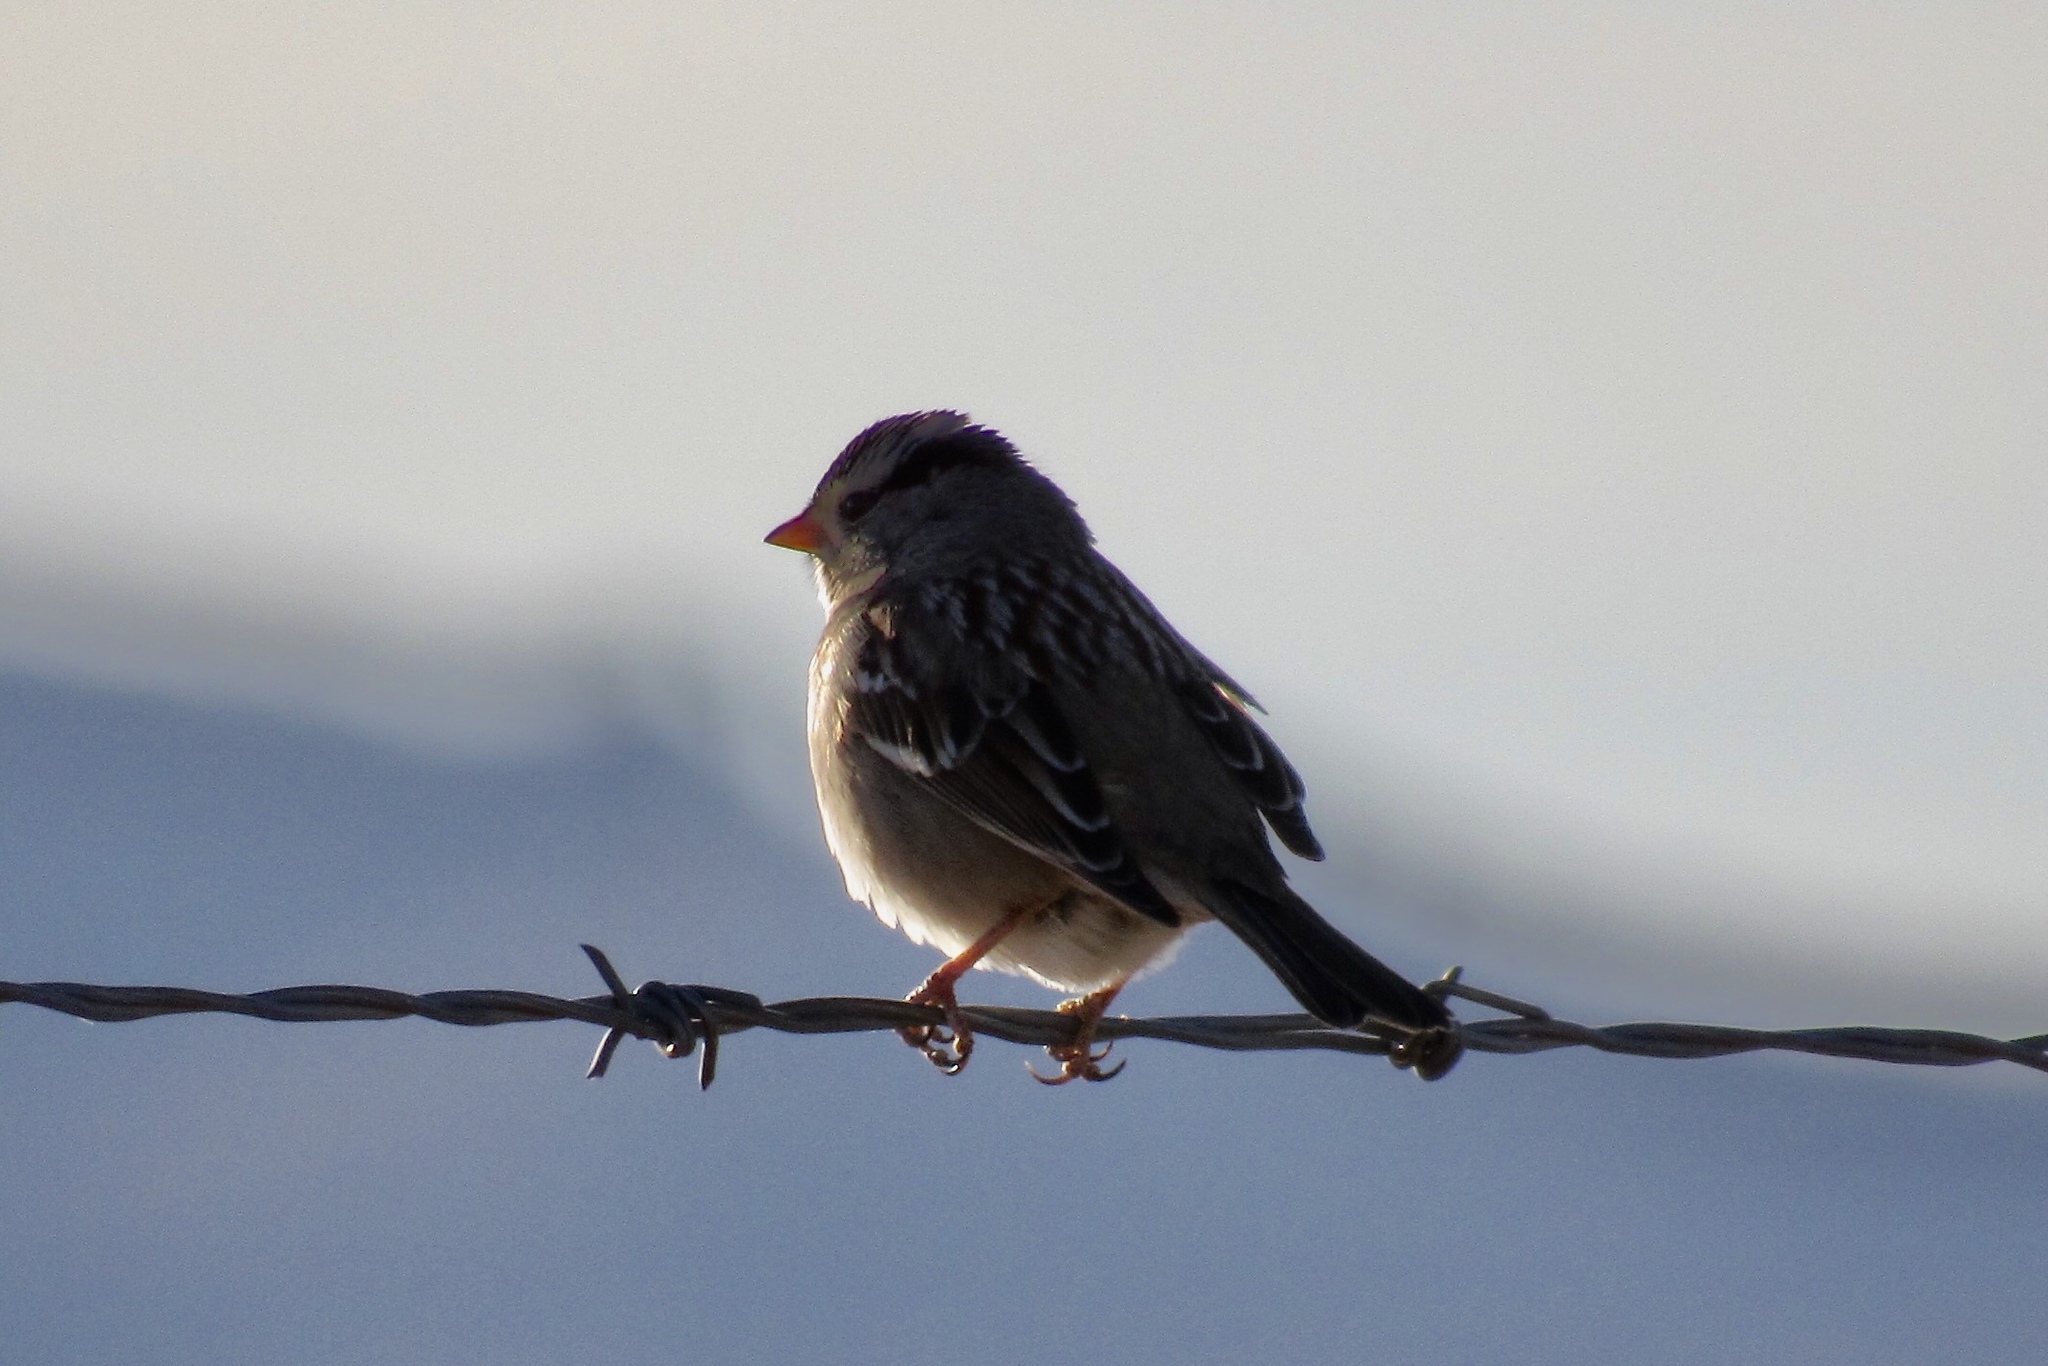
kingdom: Animalia
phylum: Chordata
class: Aves
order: Passeriformes
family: Passerellidae
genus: Zonotrichia
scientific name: Zonotrichia leucophrys
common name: White-crowned sparrow
